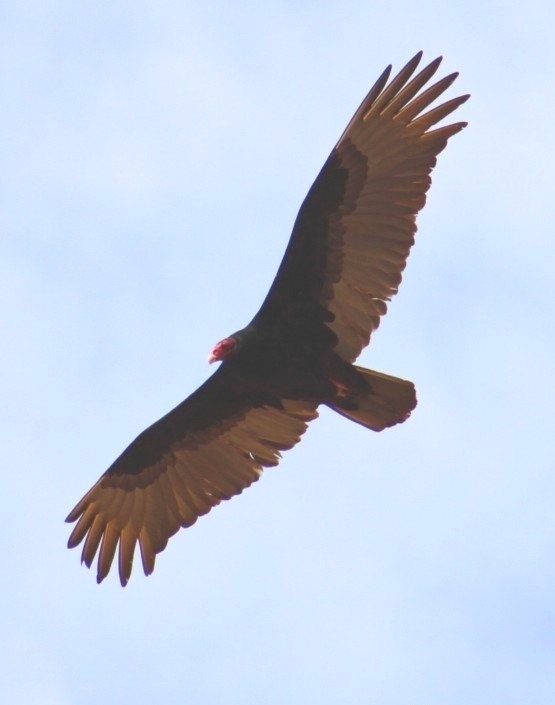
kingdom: Animalia
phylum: Chordata
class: Aves
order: Accipitriformes
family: Cathartidae
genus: Cathartes
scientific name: Cathartes aura
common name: Turkey vulture
